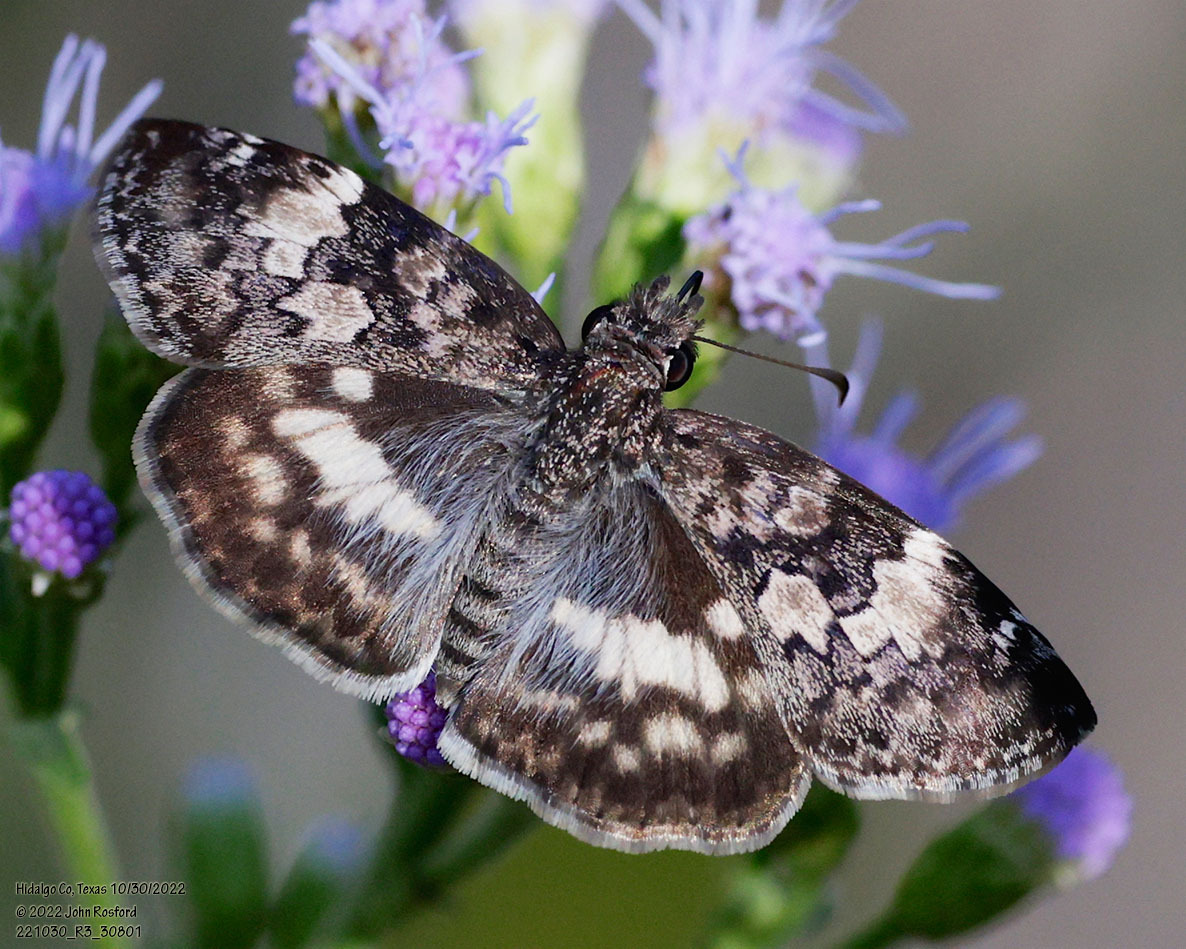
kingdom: Animalia
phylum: Arthropoda
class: Insecta
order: Lepidoptera
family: Hesperiidae
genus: Chiothion
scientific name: Chiothion georgina
